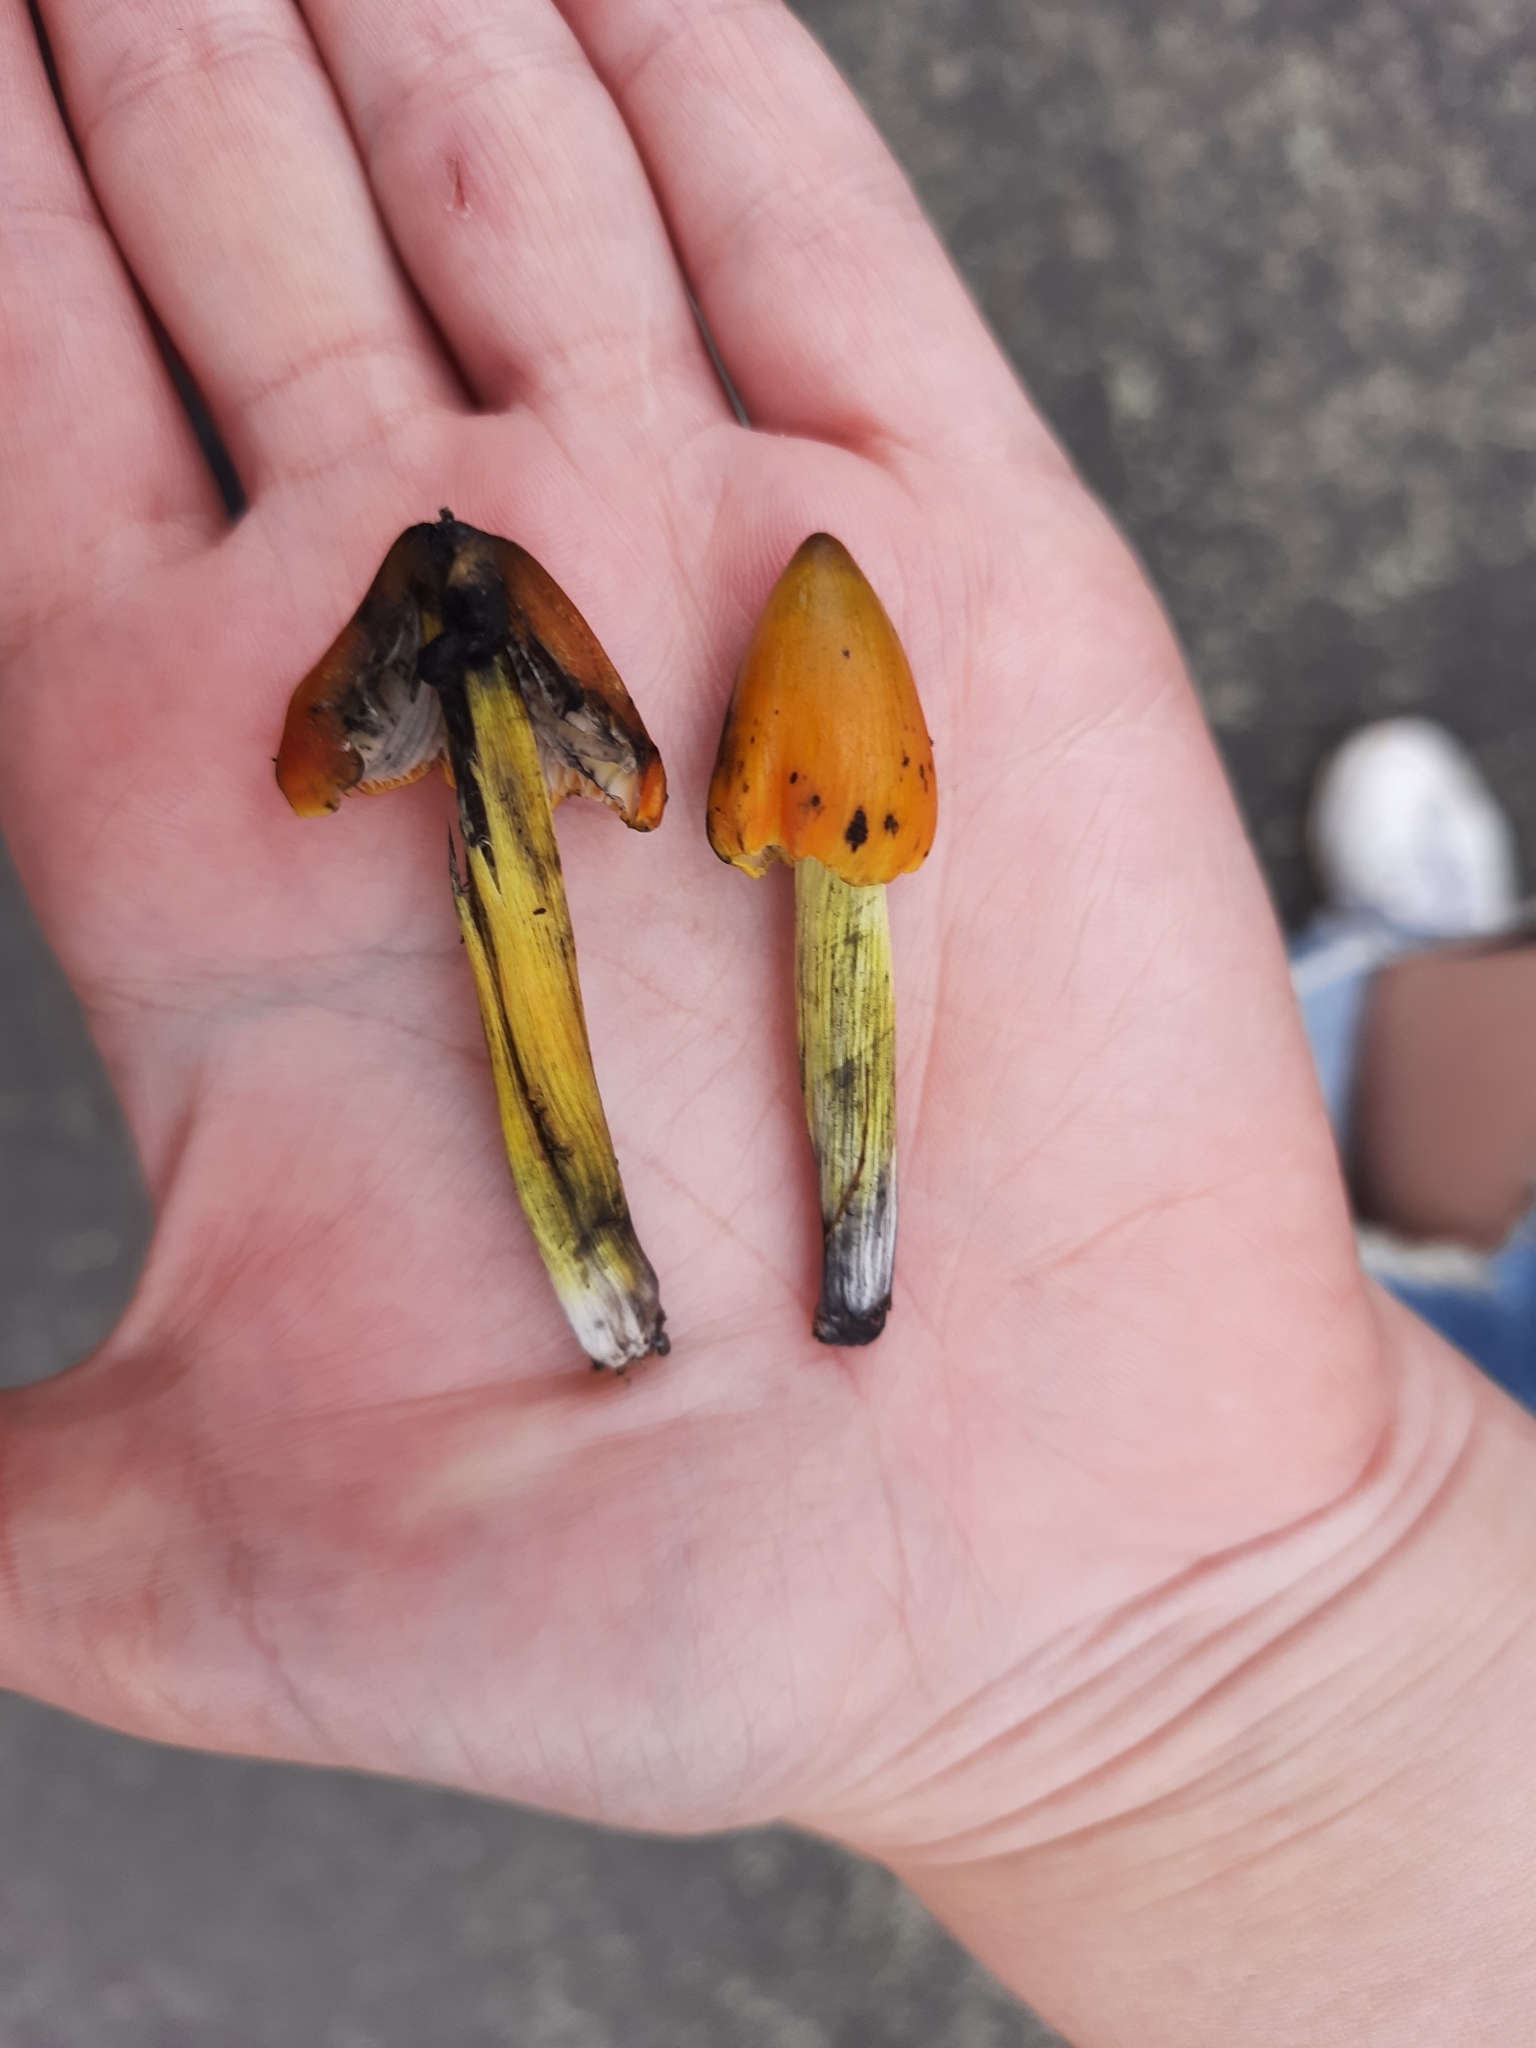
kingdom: Fungi
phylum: Basidiomycota
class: Agaricomycetes
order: Agaricales
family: Hygrophoraceae
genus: Hygrocybe
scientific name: Hygrocybe conica
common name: Blackening wax-cap
